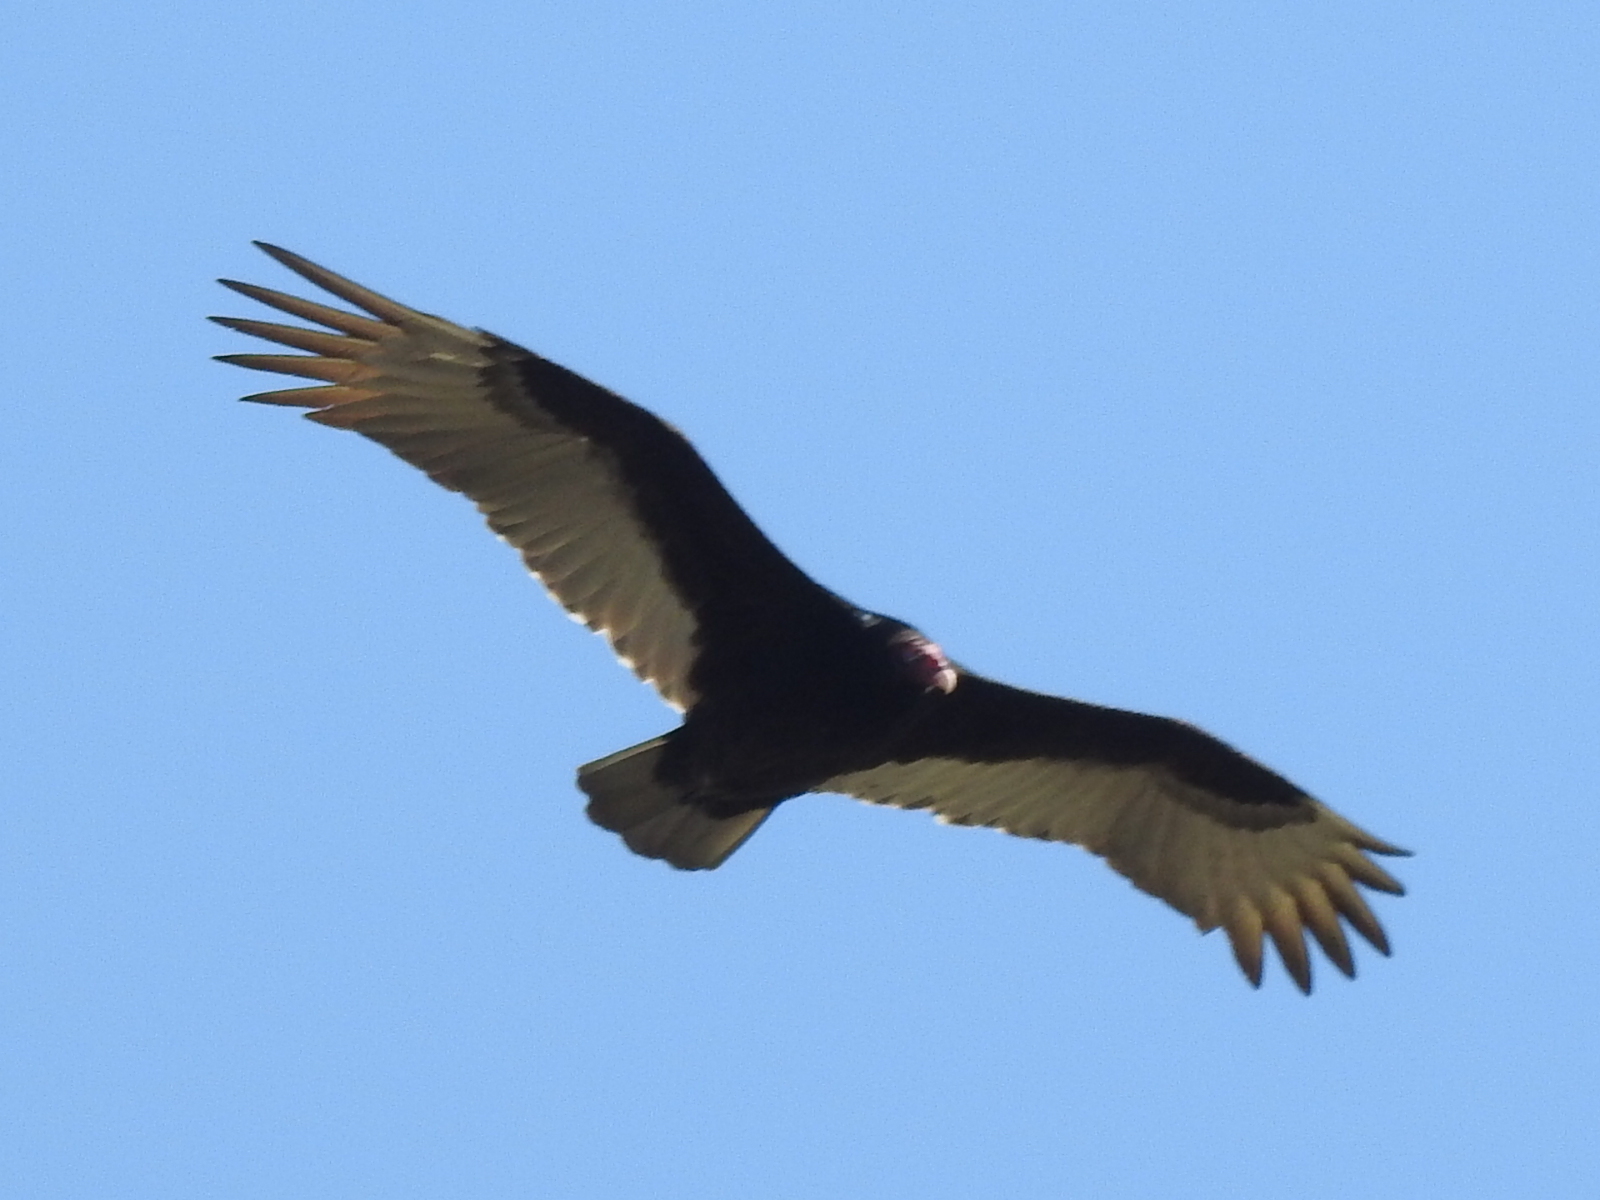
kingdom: Animalia
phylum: Chordata
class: Aves
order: Accipitriformes
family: Cathartidae
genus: Cathartes
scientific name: Cathartes aura
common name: Turkey vulture
